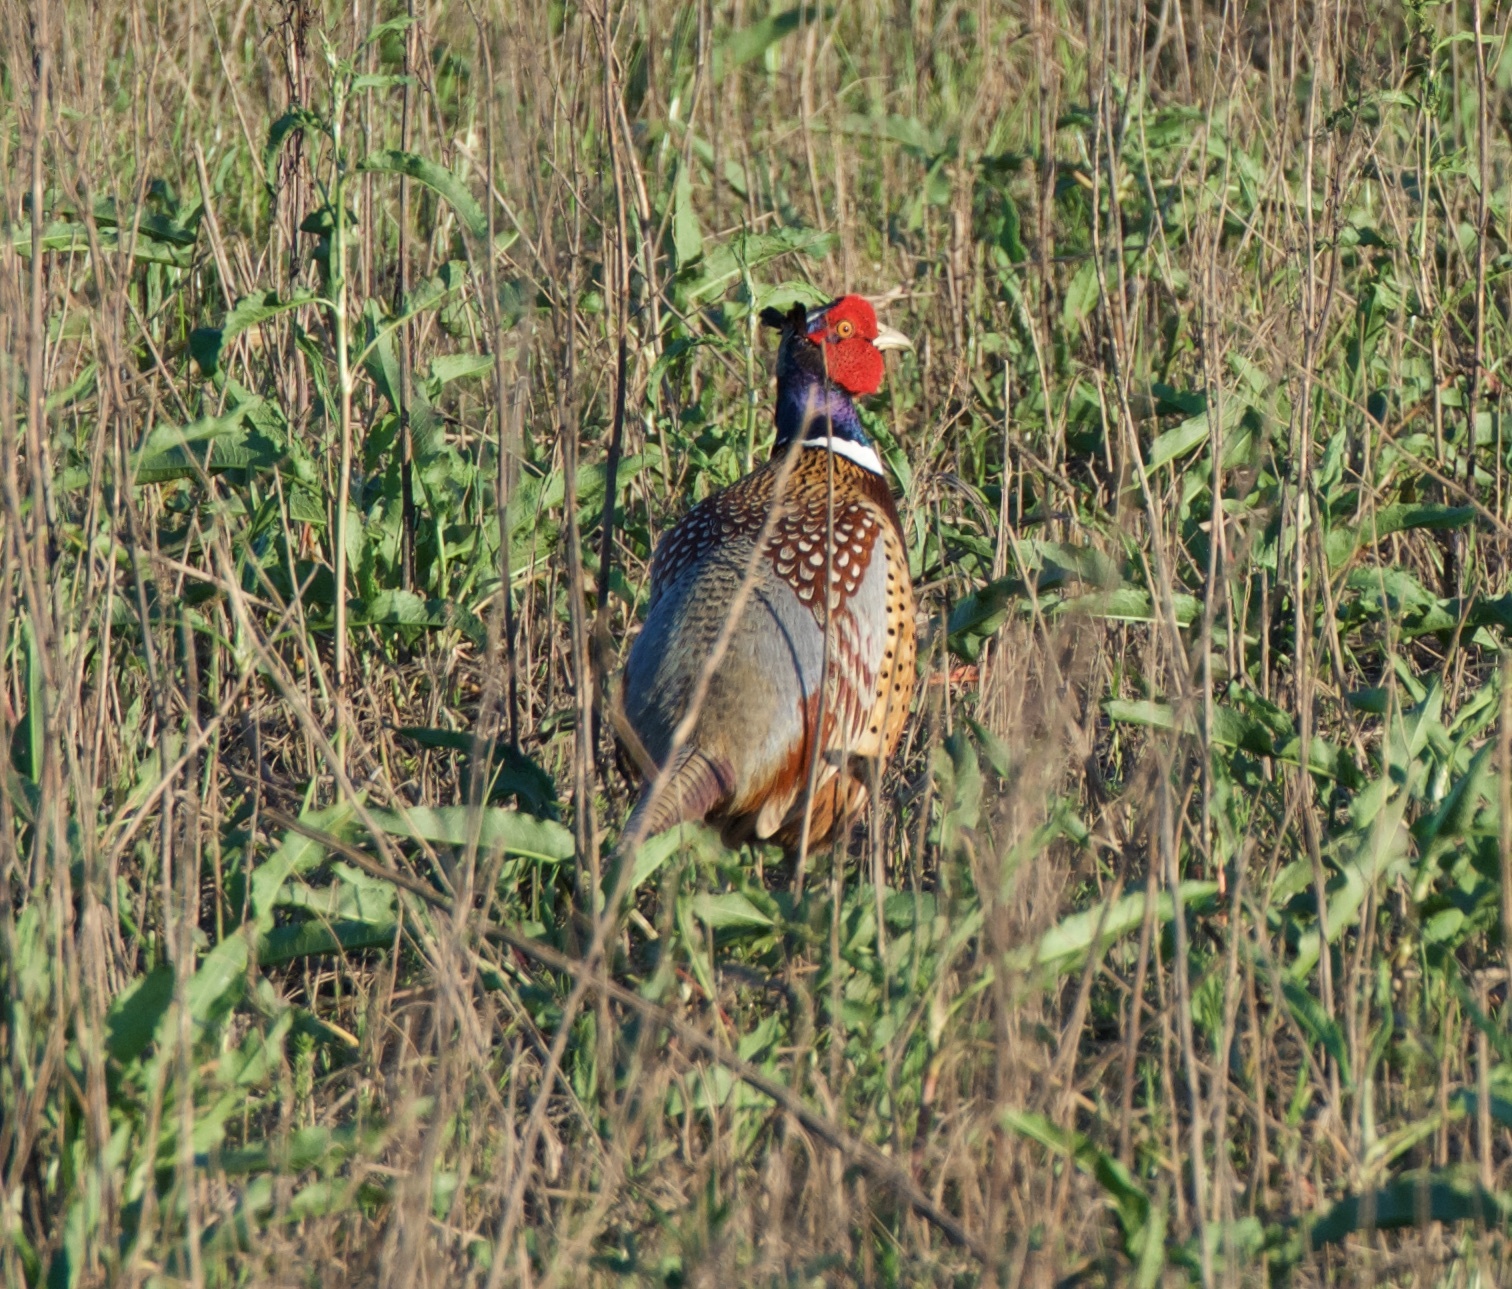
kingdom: Animalia
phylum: Chordata
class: Aves
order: Galliformes
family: Phasianidae
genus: Phasianus
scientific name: Phasianus colchicus
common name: Common pheasant
